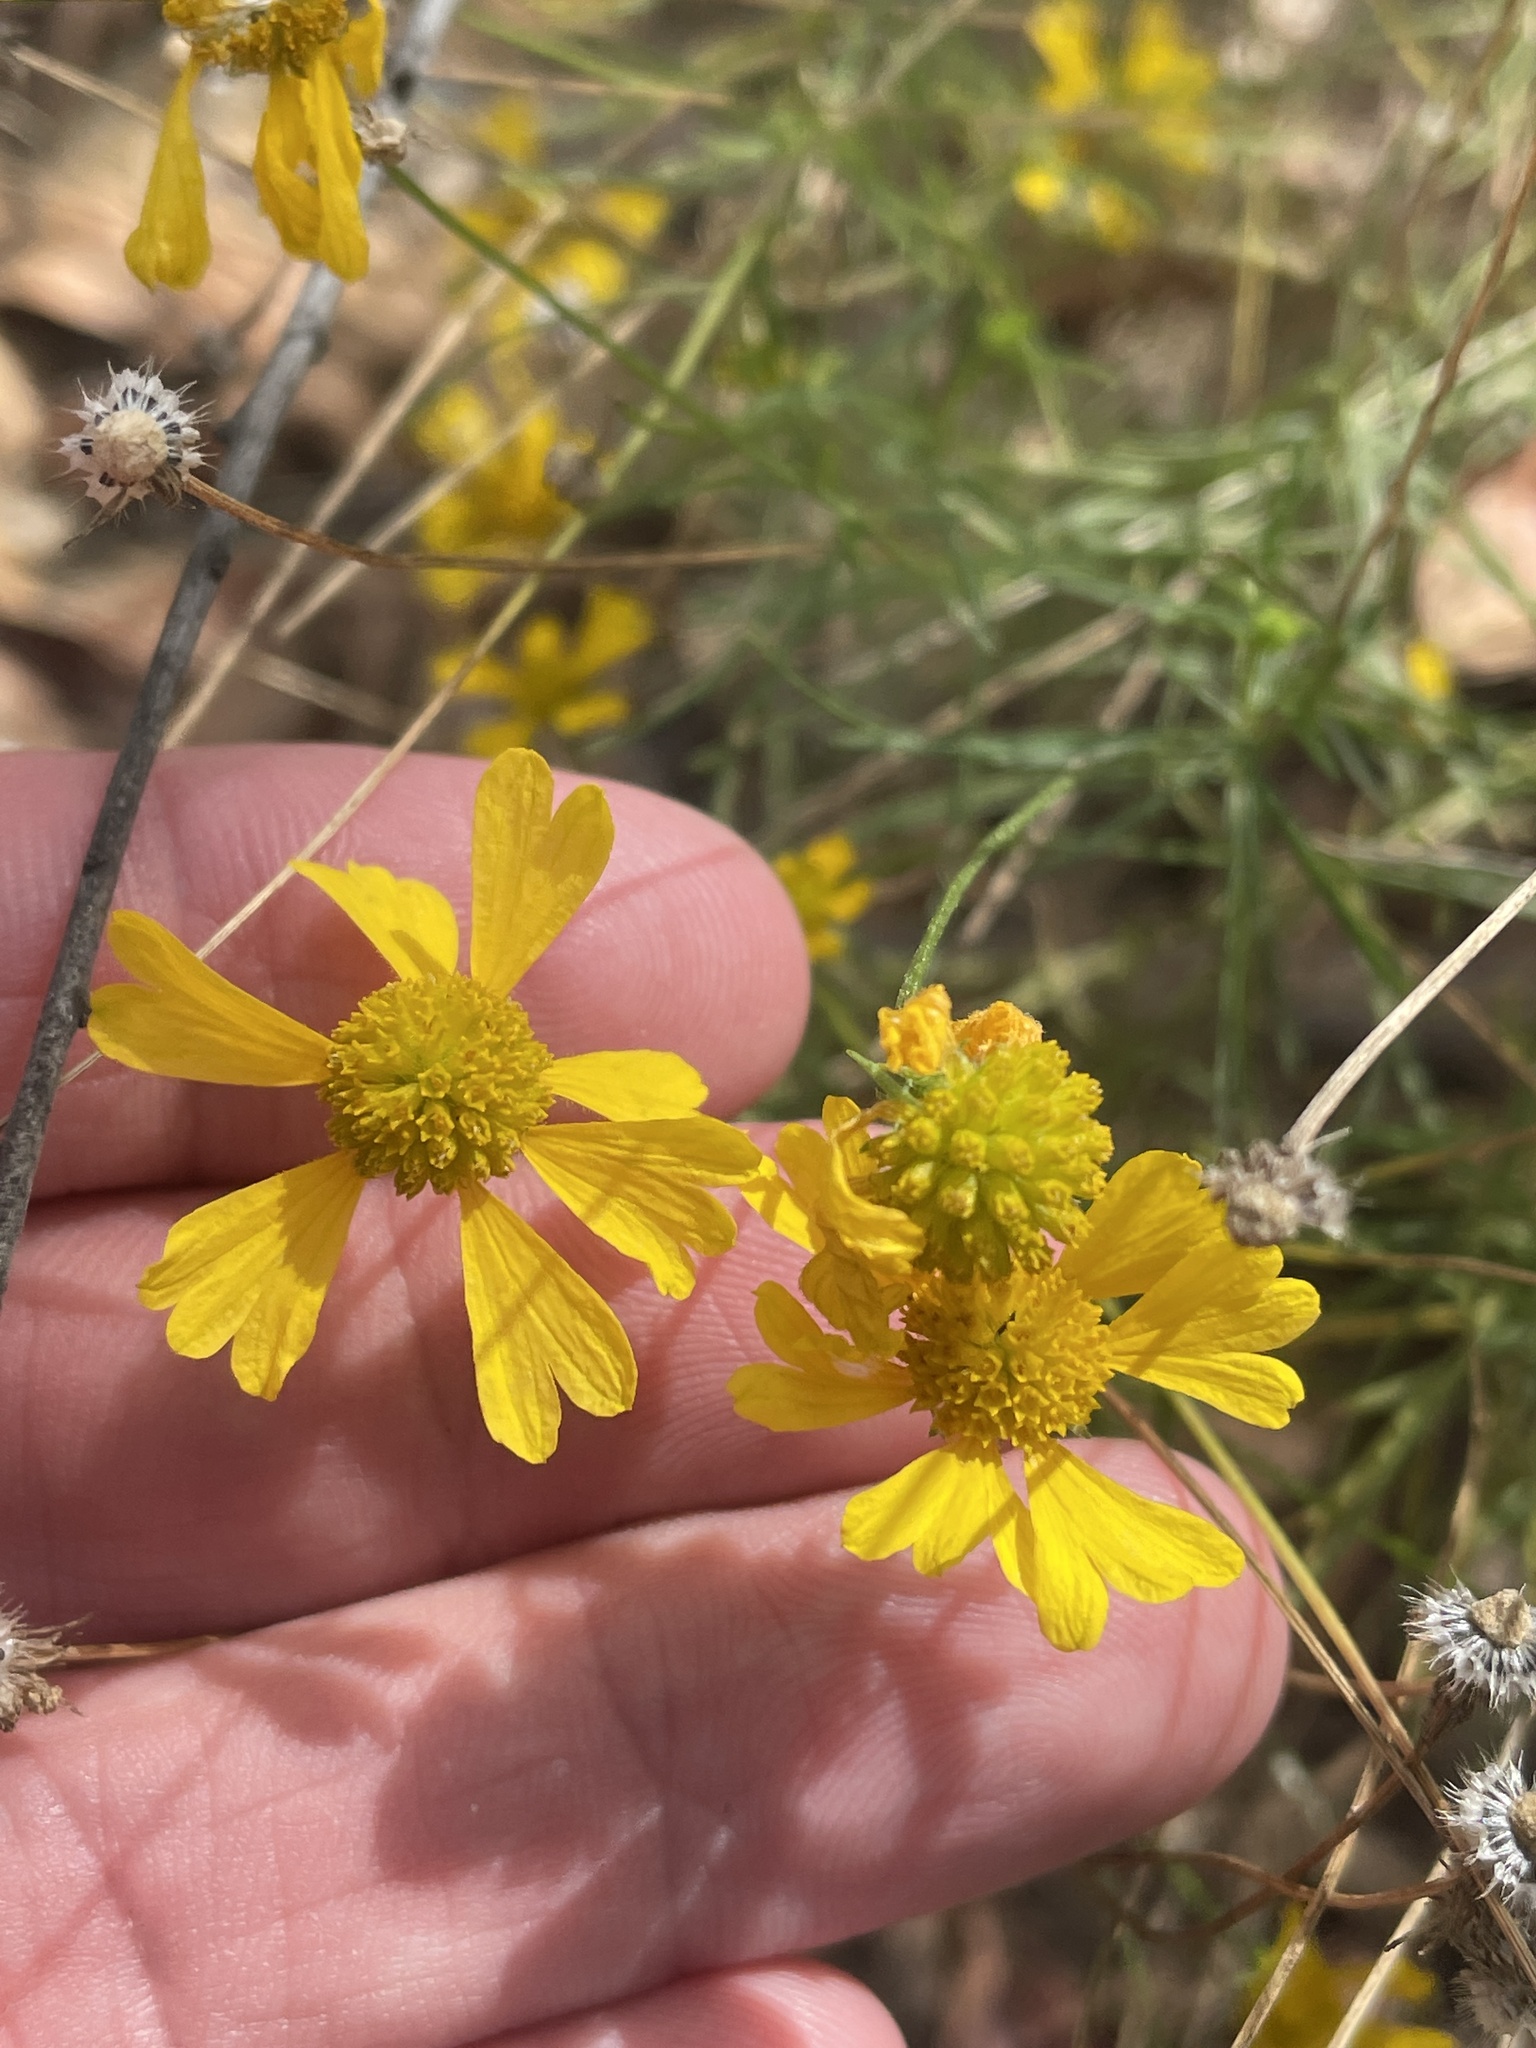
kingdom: Plantae
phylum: Tracheophyta
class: Magnoliopsida
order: Asterales
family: Asteraceae
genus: Helenium
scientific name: Helenium amarum
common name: Bitter sneezeweed
